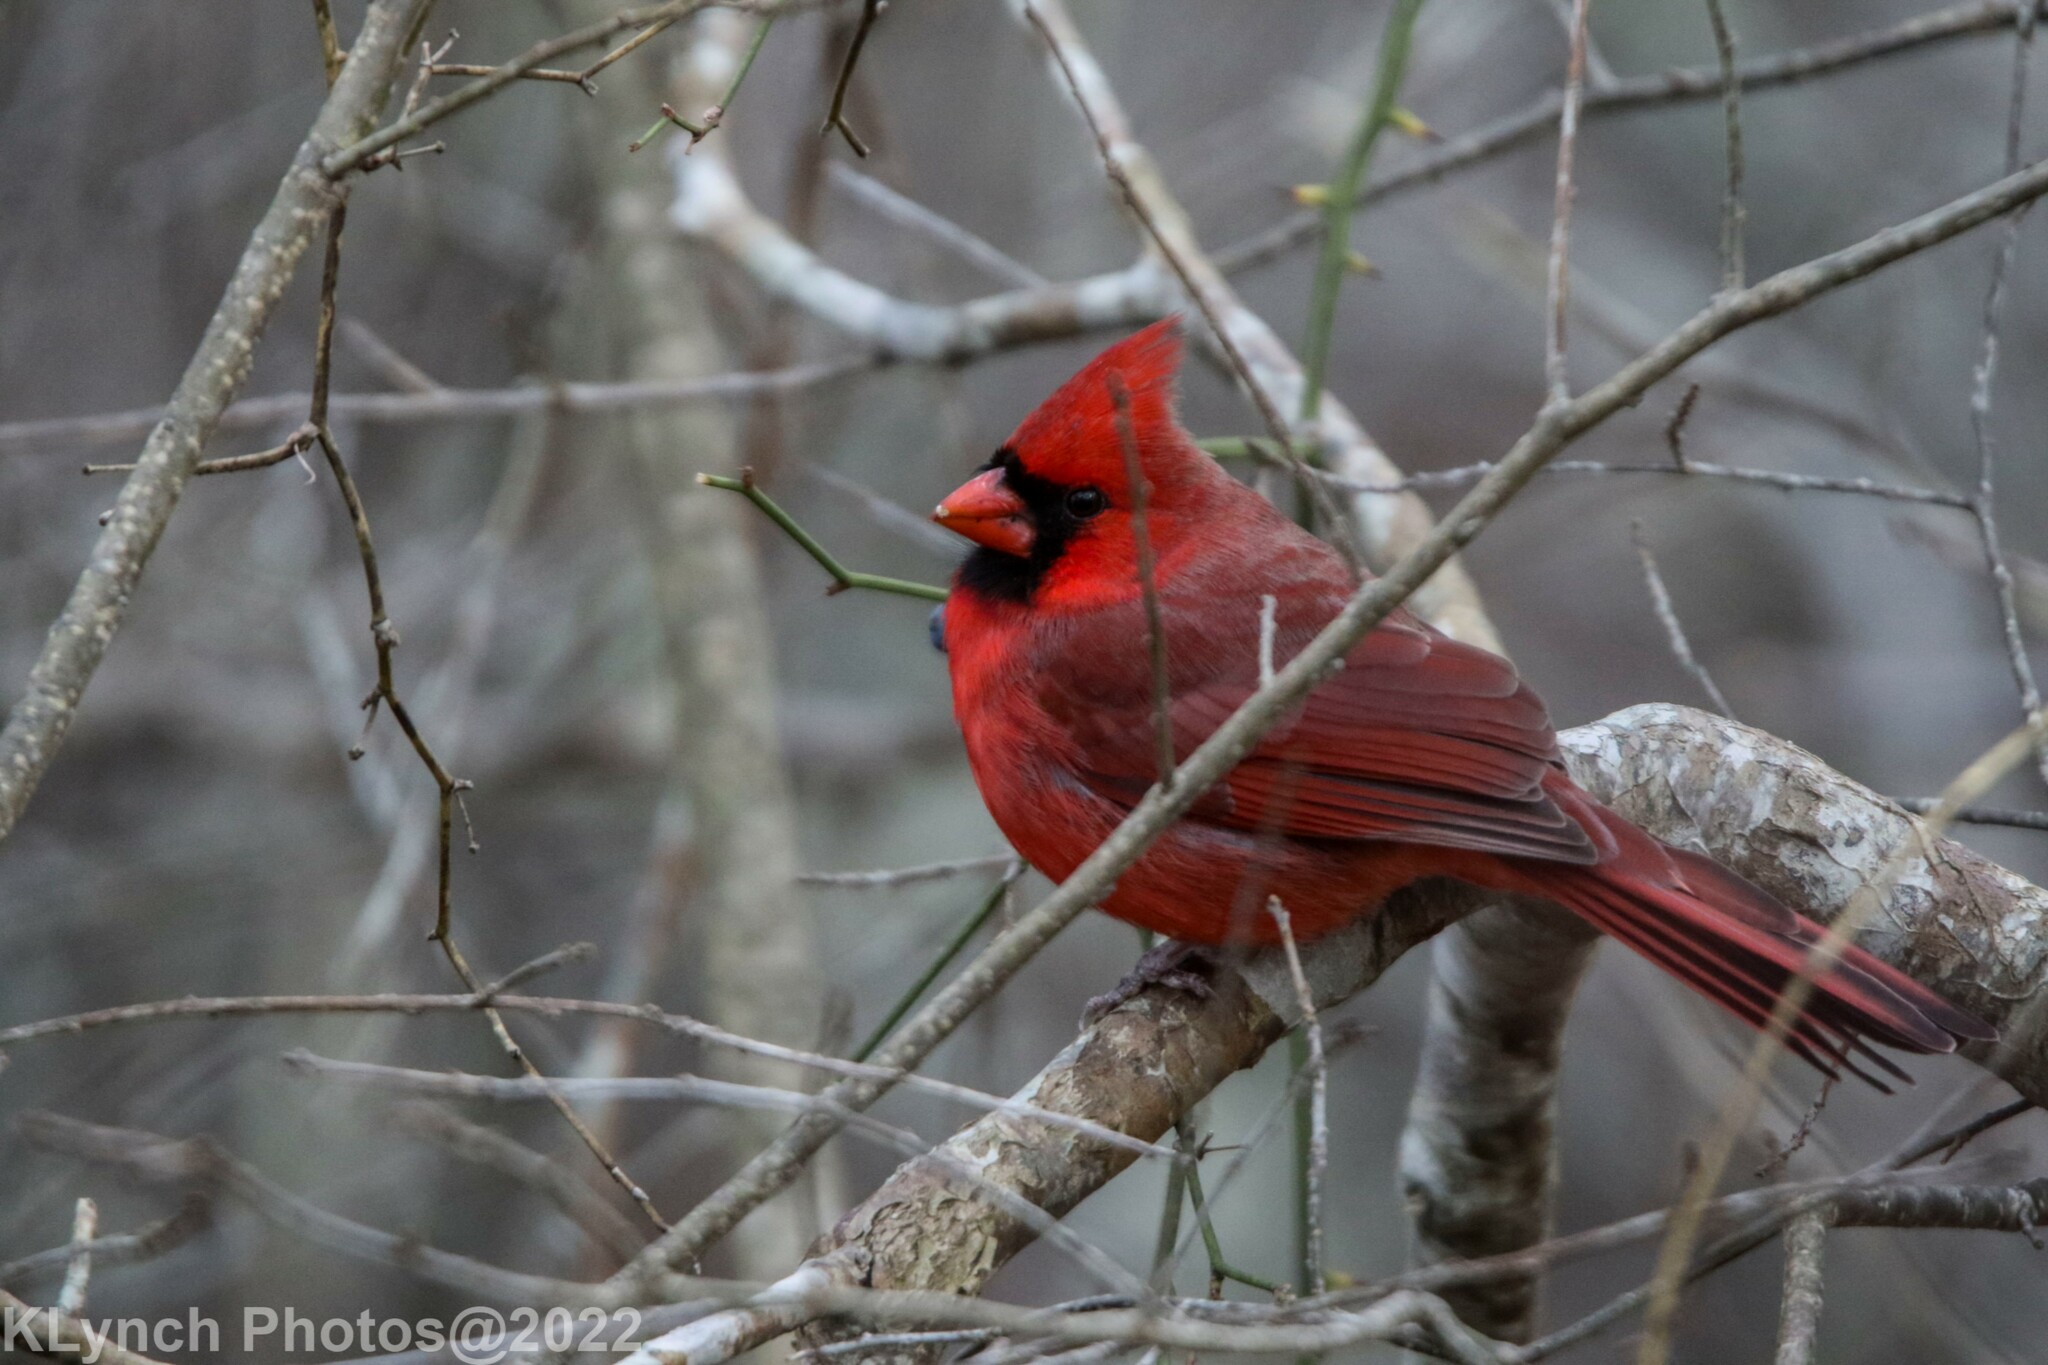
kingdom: Animalia
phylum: Chordata
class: Aves
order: Passeriformes
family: Cardinalidae
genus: Cardinalis
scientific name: Cardinalis cardinalis
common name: Northern cardinal
